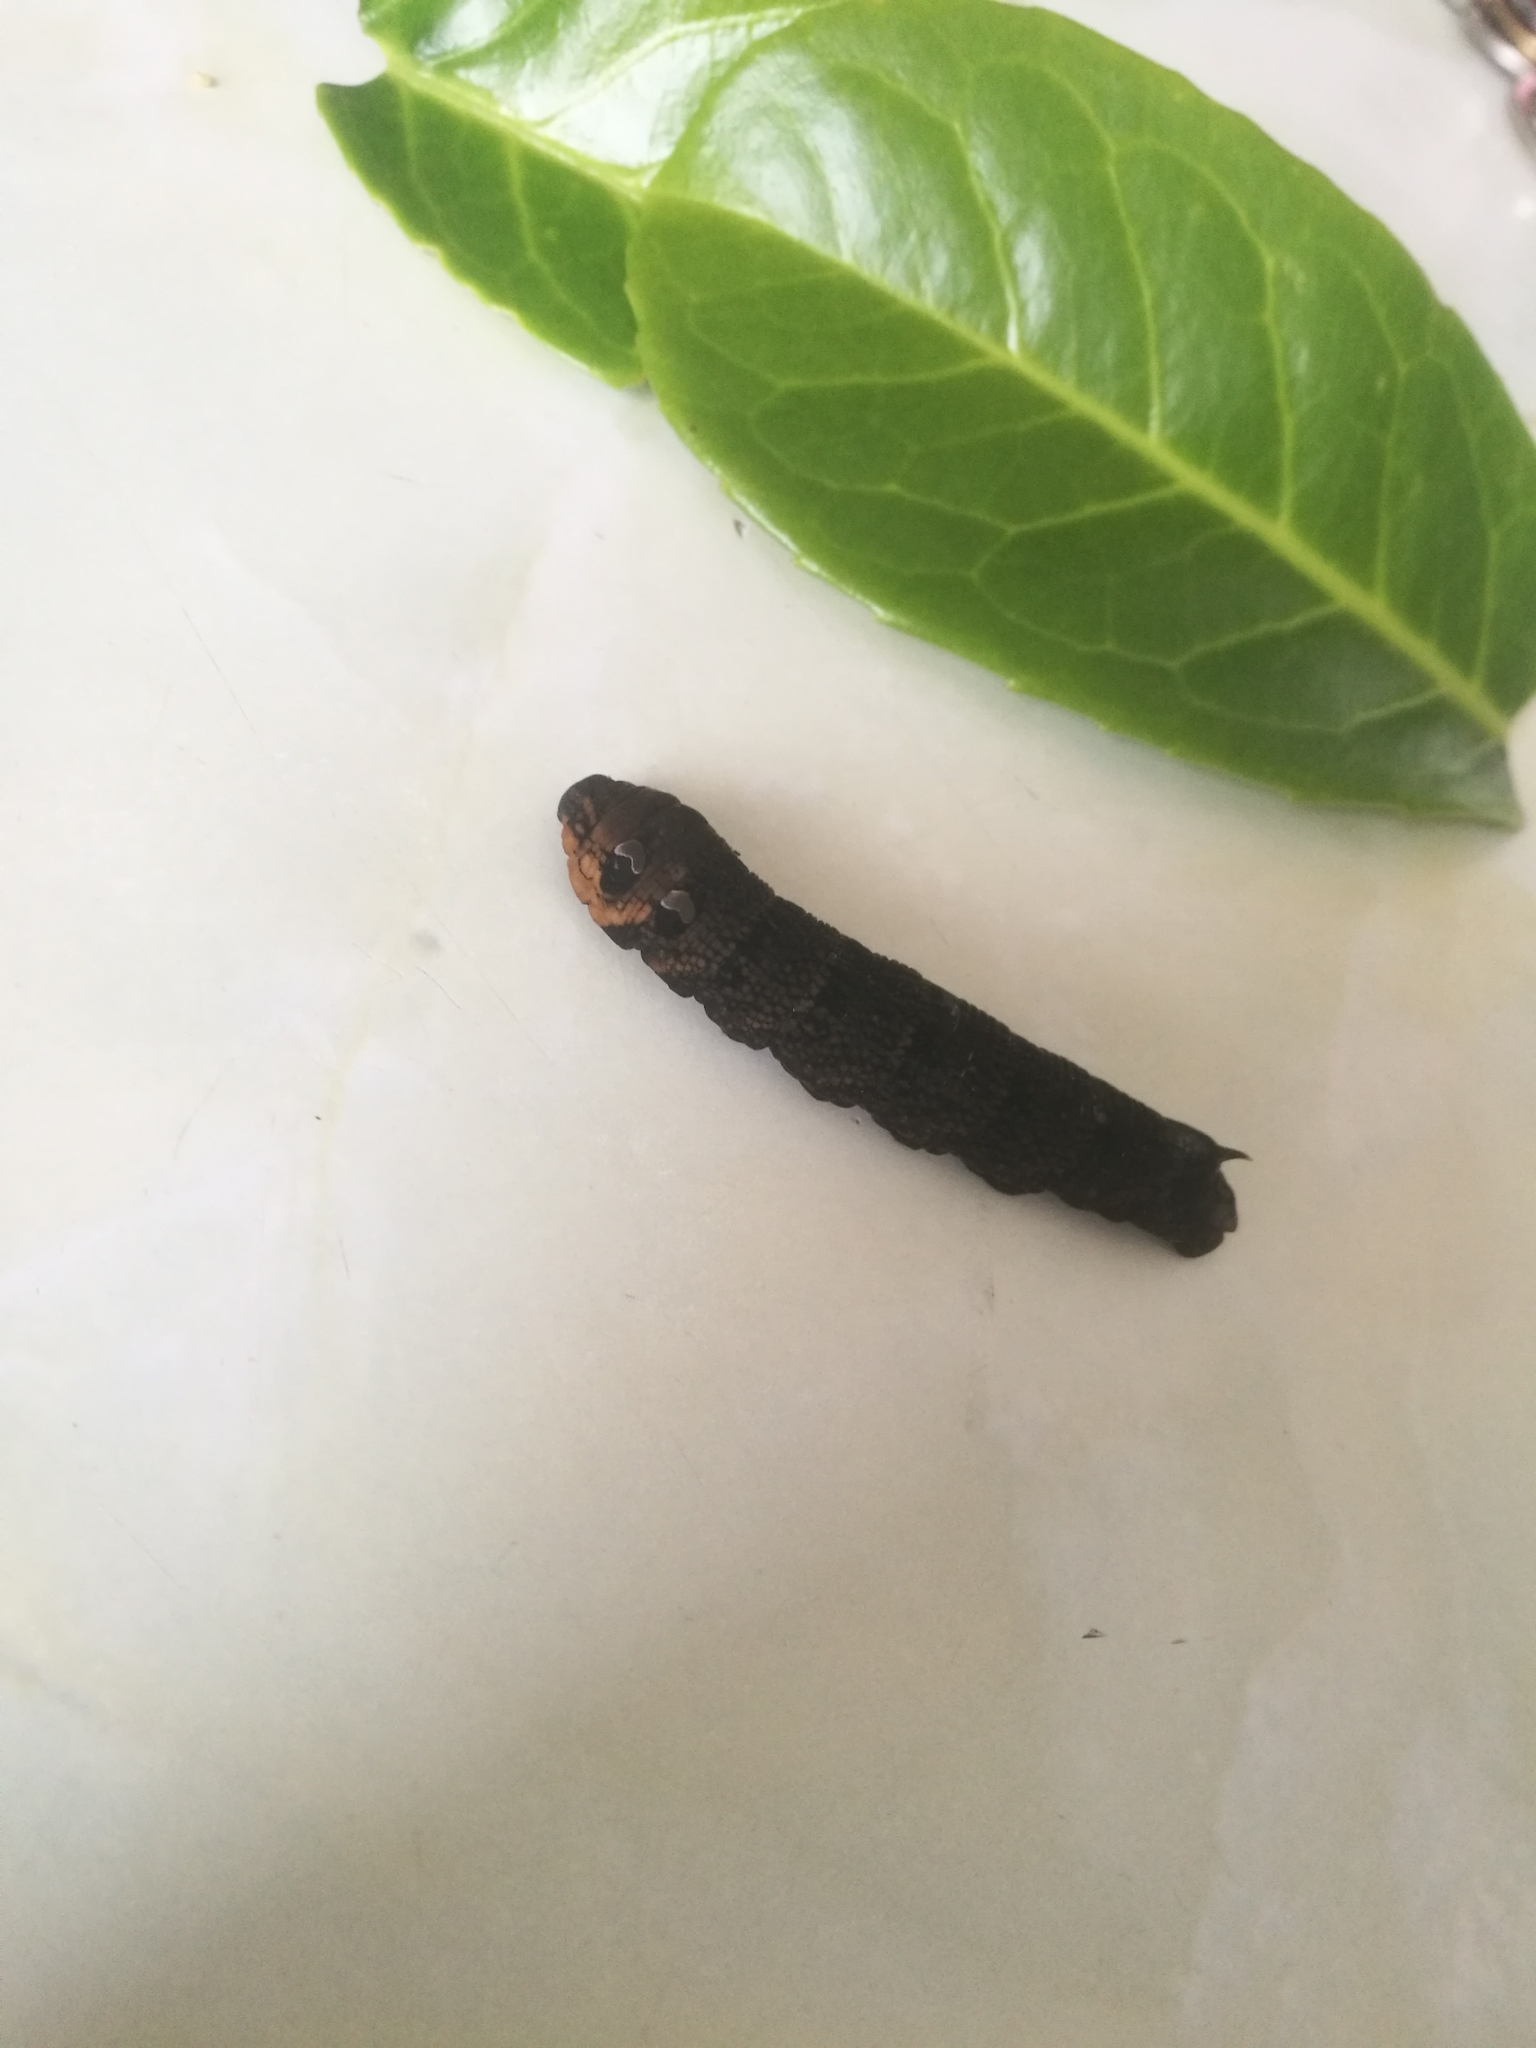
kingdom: Animalia
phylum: Arthropoda
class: Insecta
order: Lepidoptera
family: Sphingidae
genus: Deilephila
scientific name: Deilephila elpenor
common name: Elephant hawk-moth
